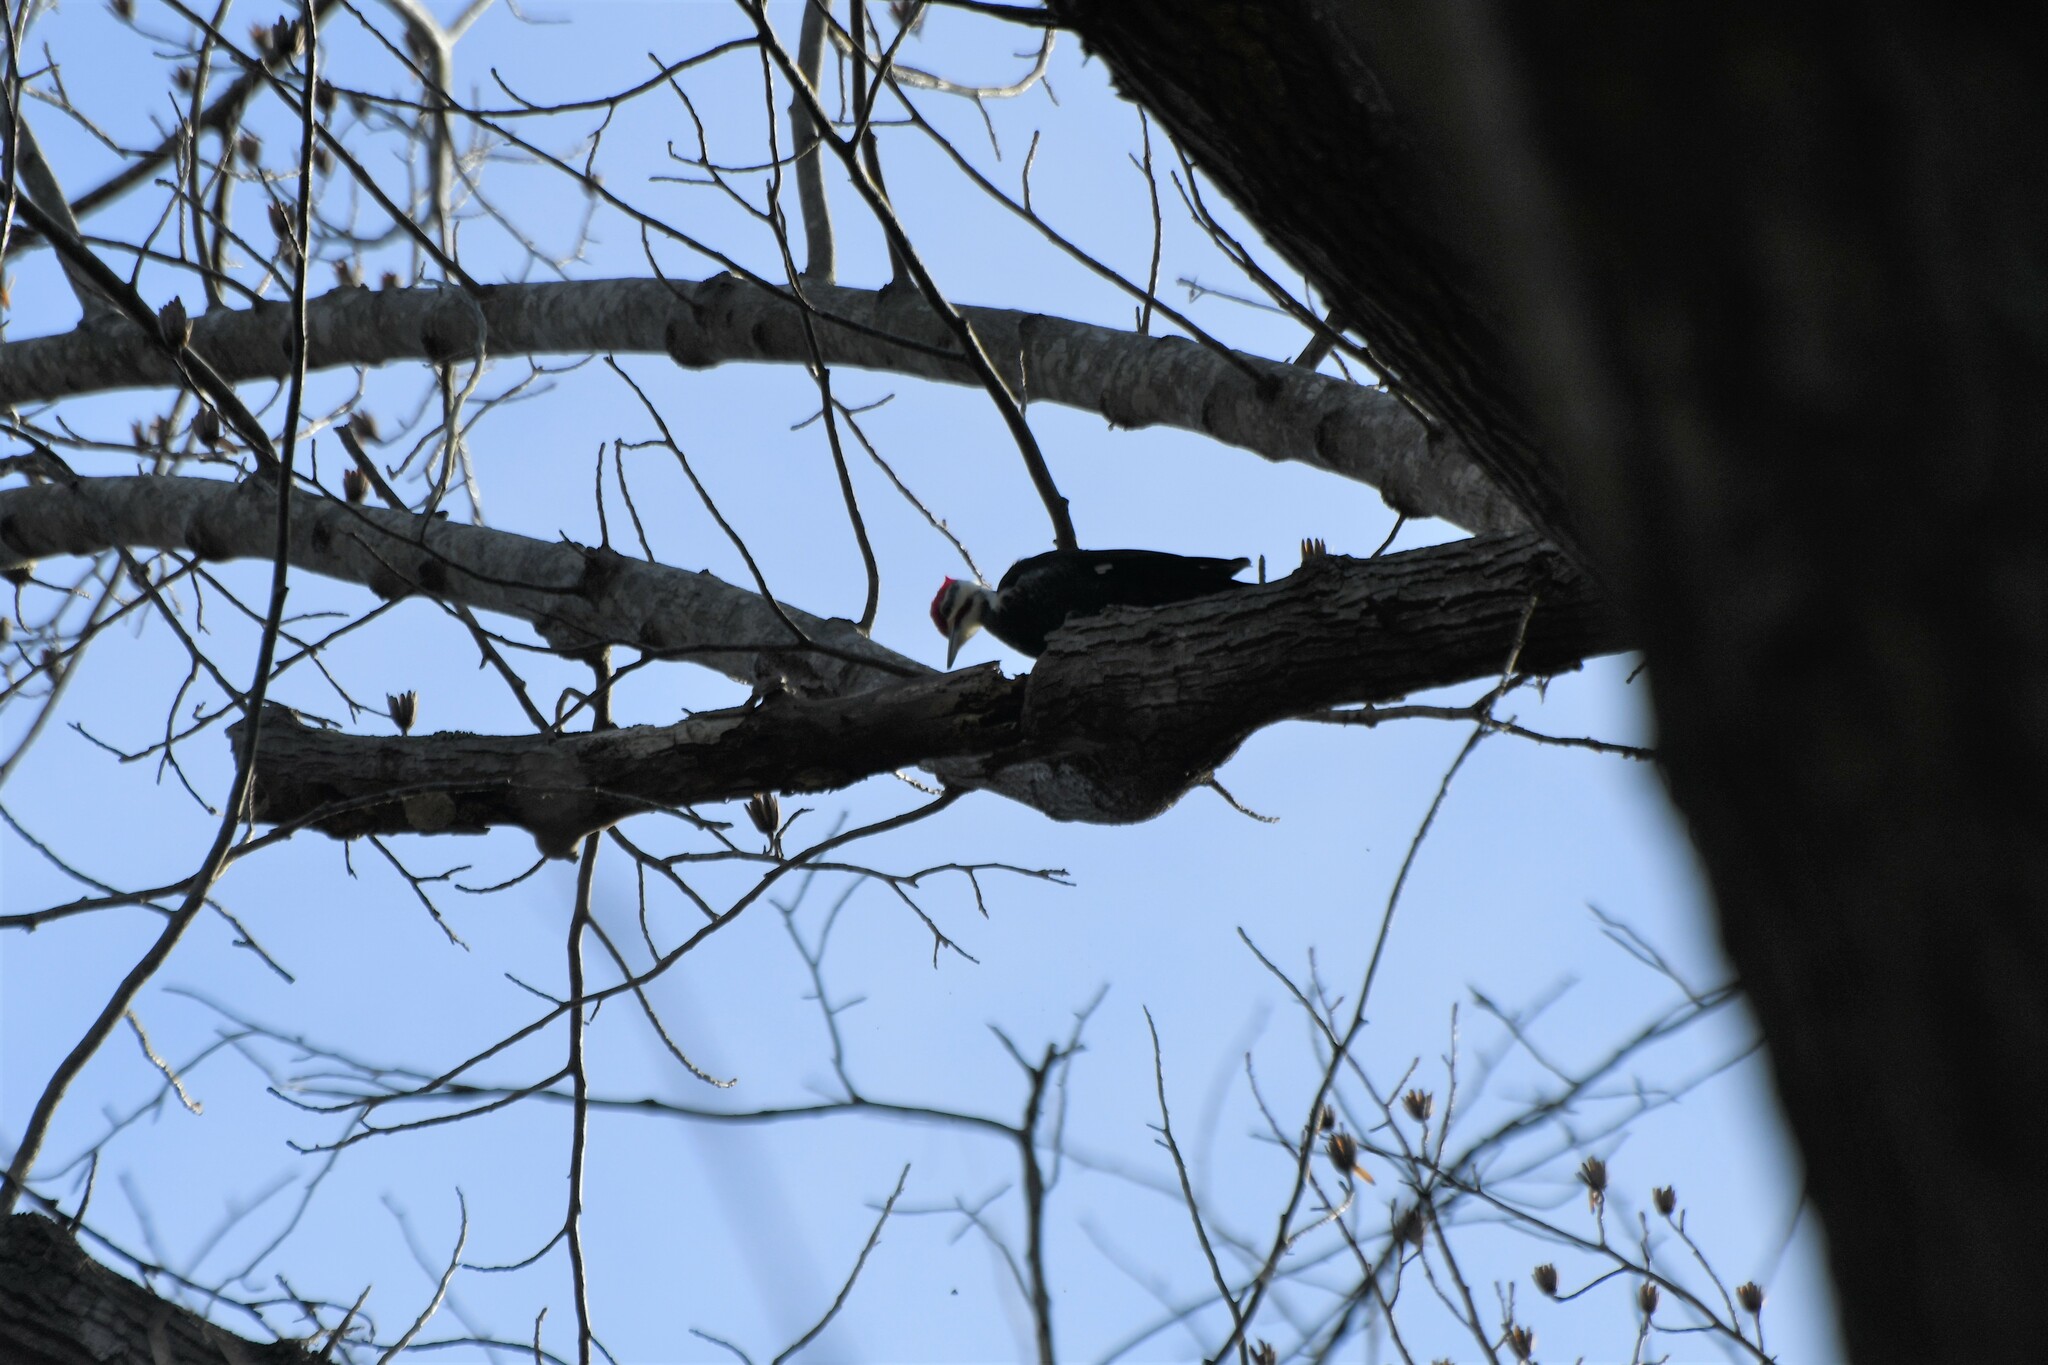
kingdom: Animalia
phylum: Chordata
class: Aves
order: Piciformes
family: Picidae
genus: Dryocopus
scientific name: Dryocopus pileatus
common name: Pileated woodpecker
